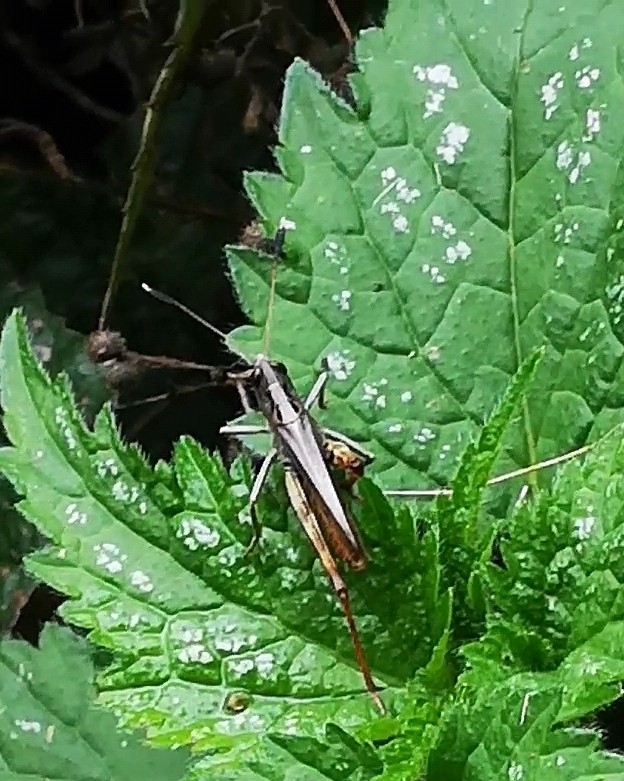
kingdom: Animalia
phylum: Arthropoda
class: Insecta
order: Orthoptera
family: Acrididae
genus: Gomphocerippus
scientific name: Gomphocerippus rufus
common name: Rufous grasshopper
